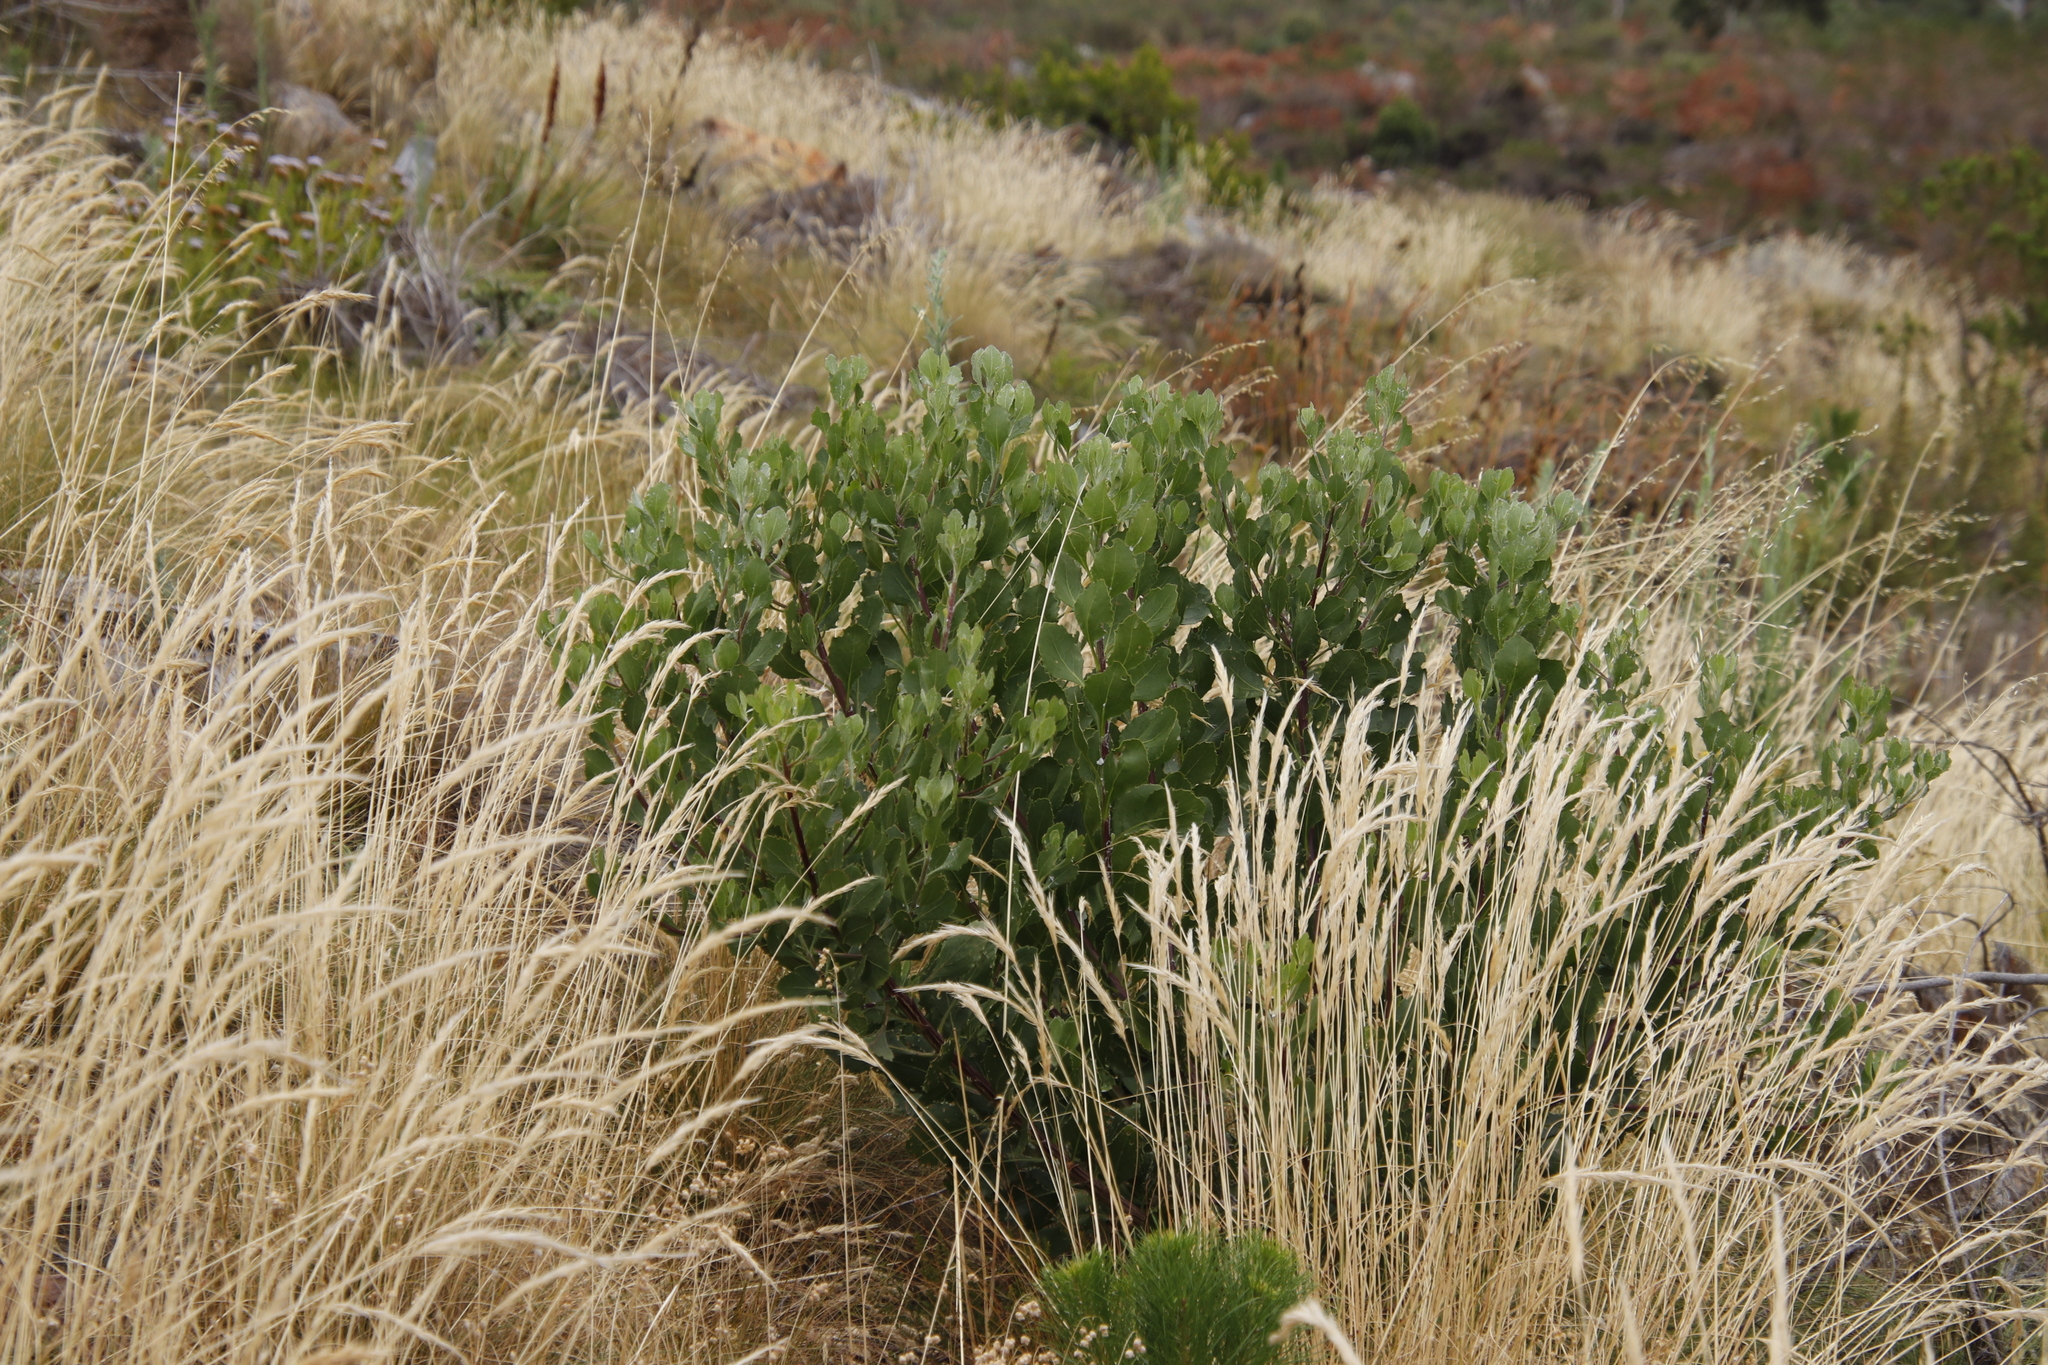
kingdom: Plantae
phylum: Tracheophyta
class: Magnoliopsida
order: Asterales
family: Asteraceae
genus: Osteospermum
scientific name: Osteospermum moniliferum
